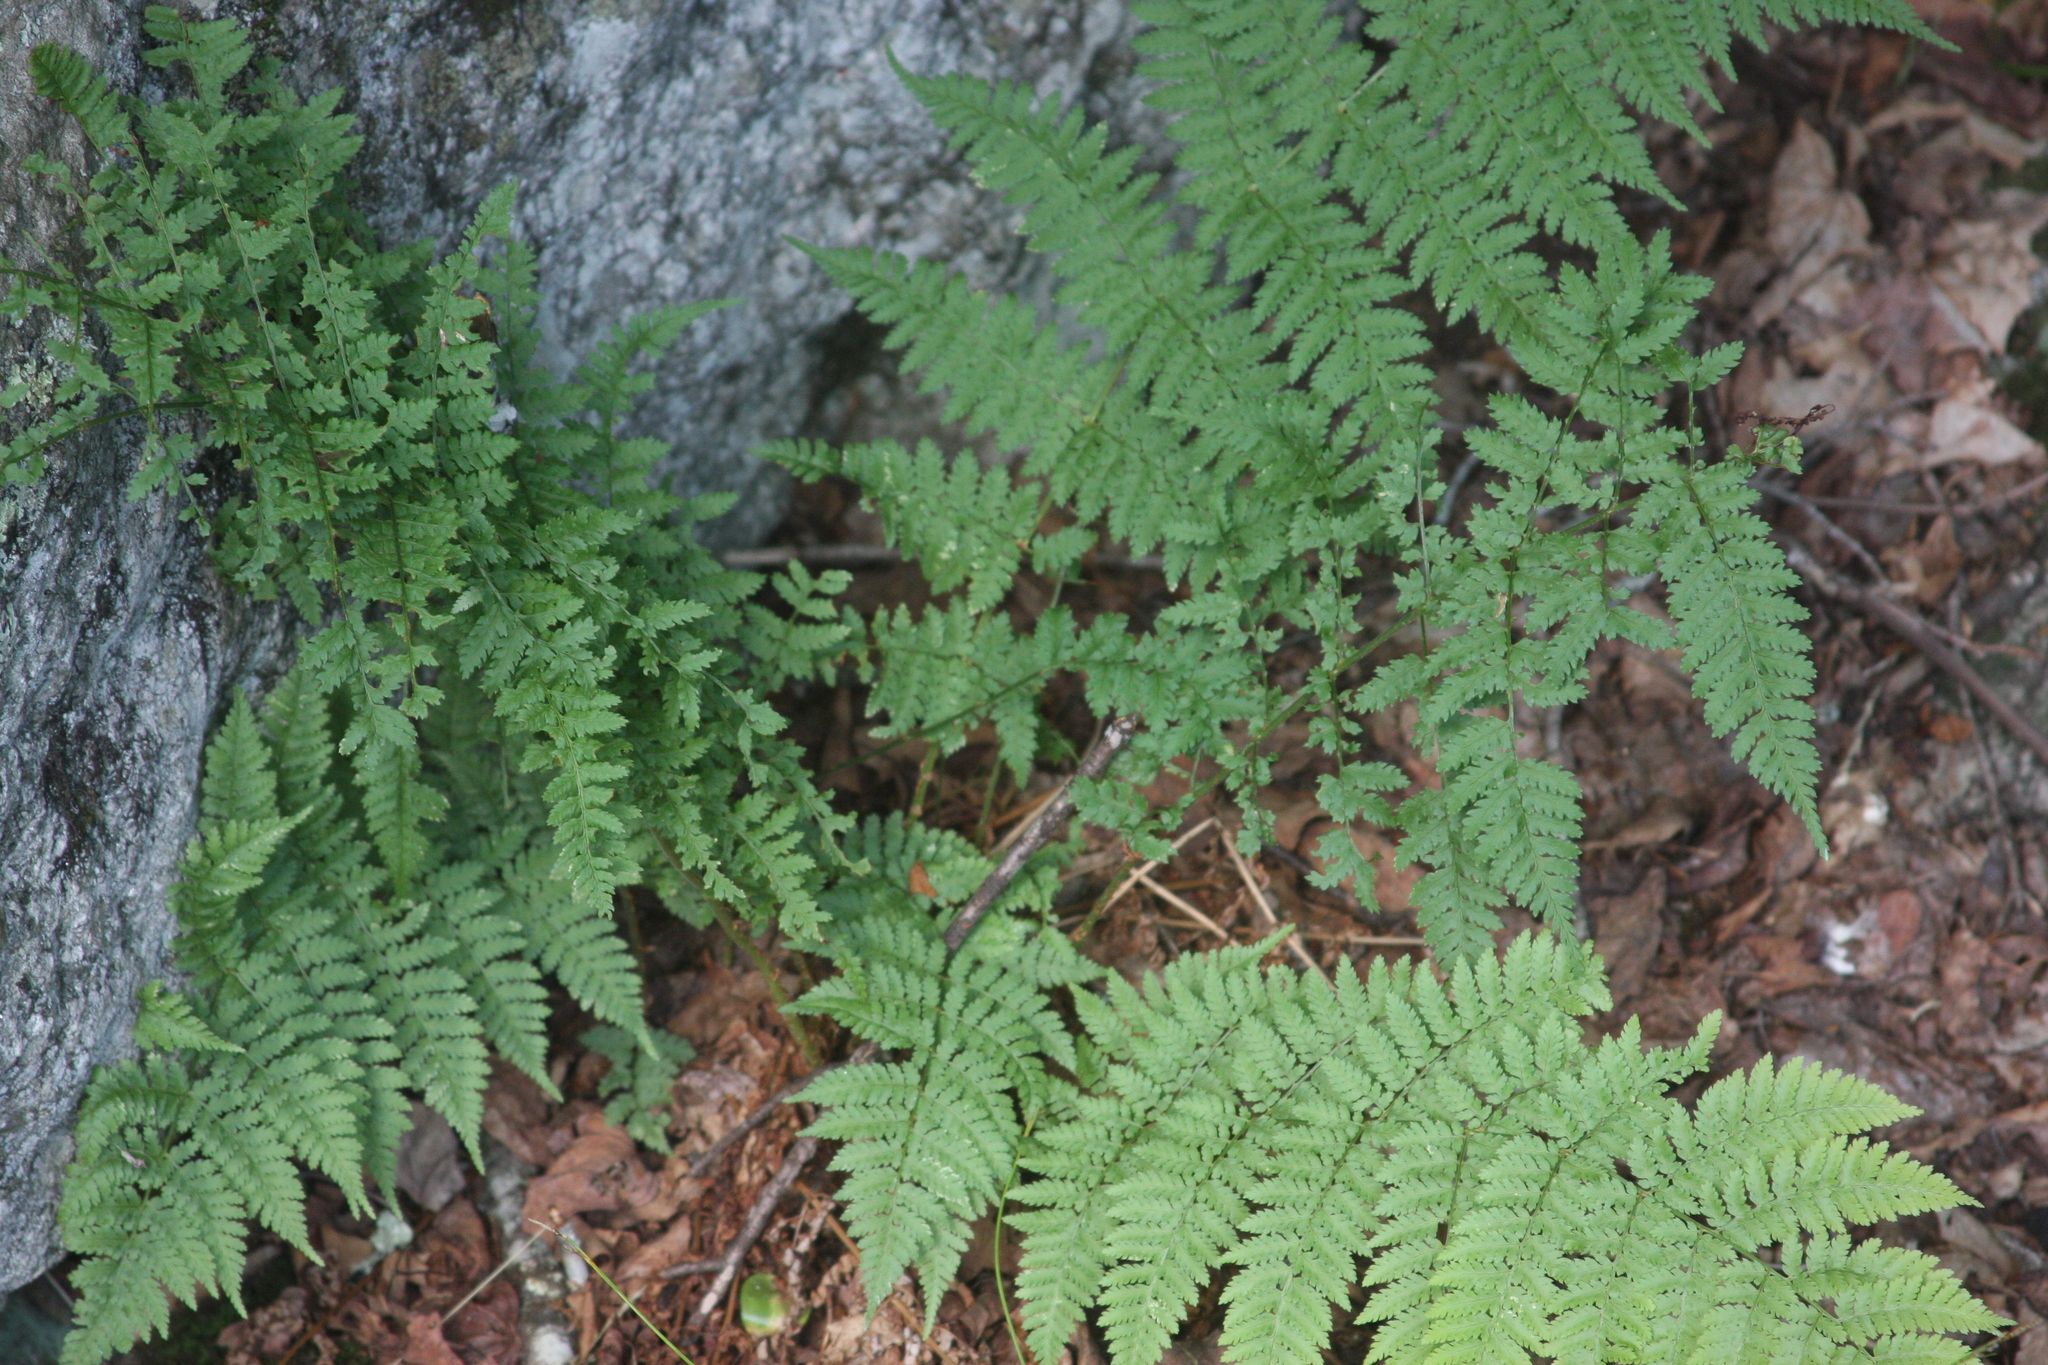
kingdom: Plantae
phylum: Tracheophyta
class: Polypodiopsida
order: Polypodiales
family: Dryopteridaceae
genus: Dryopteris
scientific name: Dryopteris intermedia
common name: Evergreen wood fern
